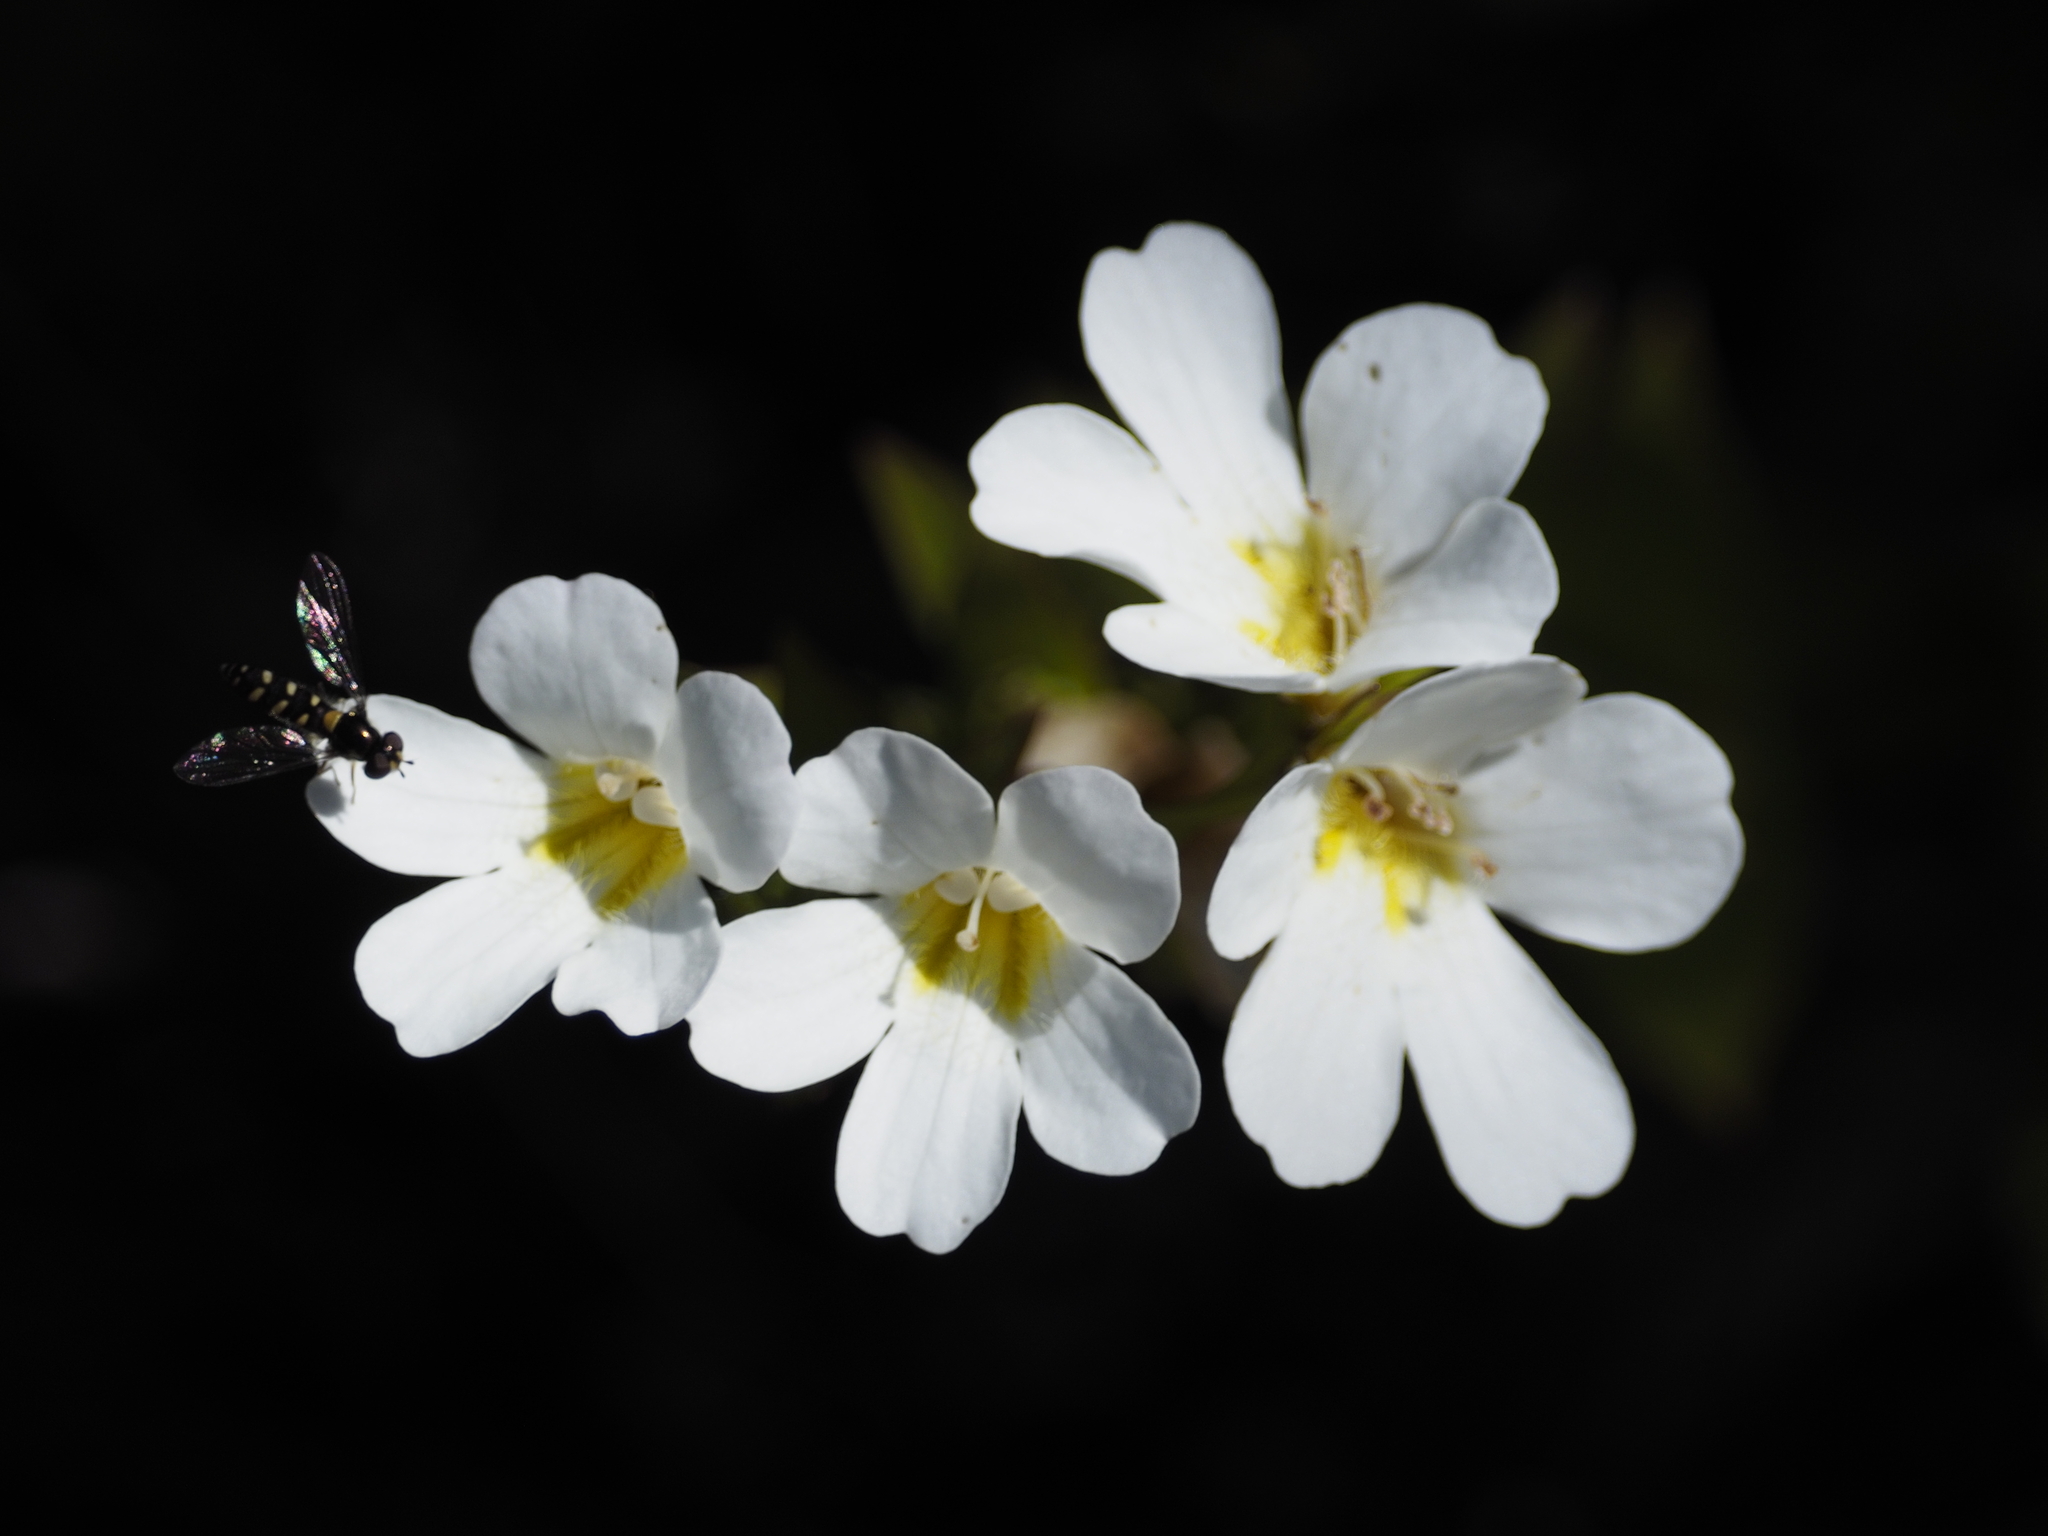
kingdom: Plantae
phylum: Tracheophyta
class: Magnoliopsida
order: Lamiales
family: Plantaginaceae
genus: Ourisia
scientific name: Ourisia calycina
